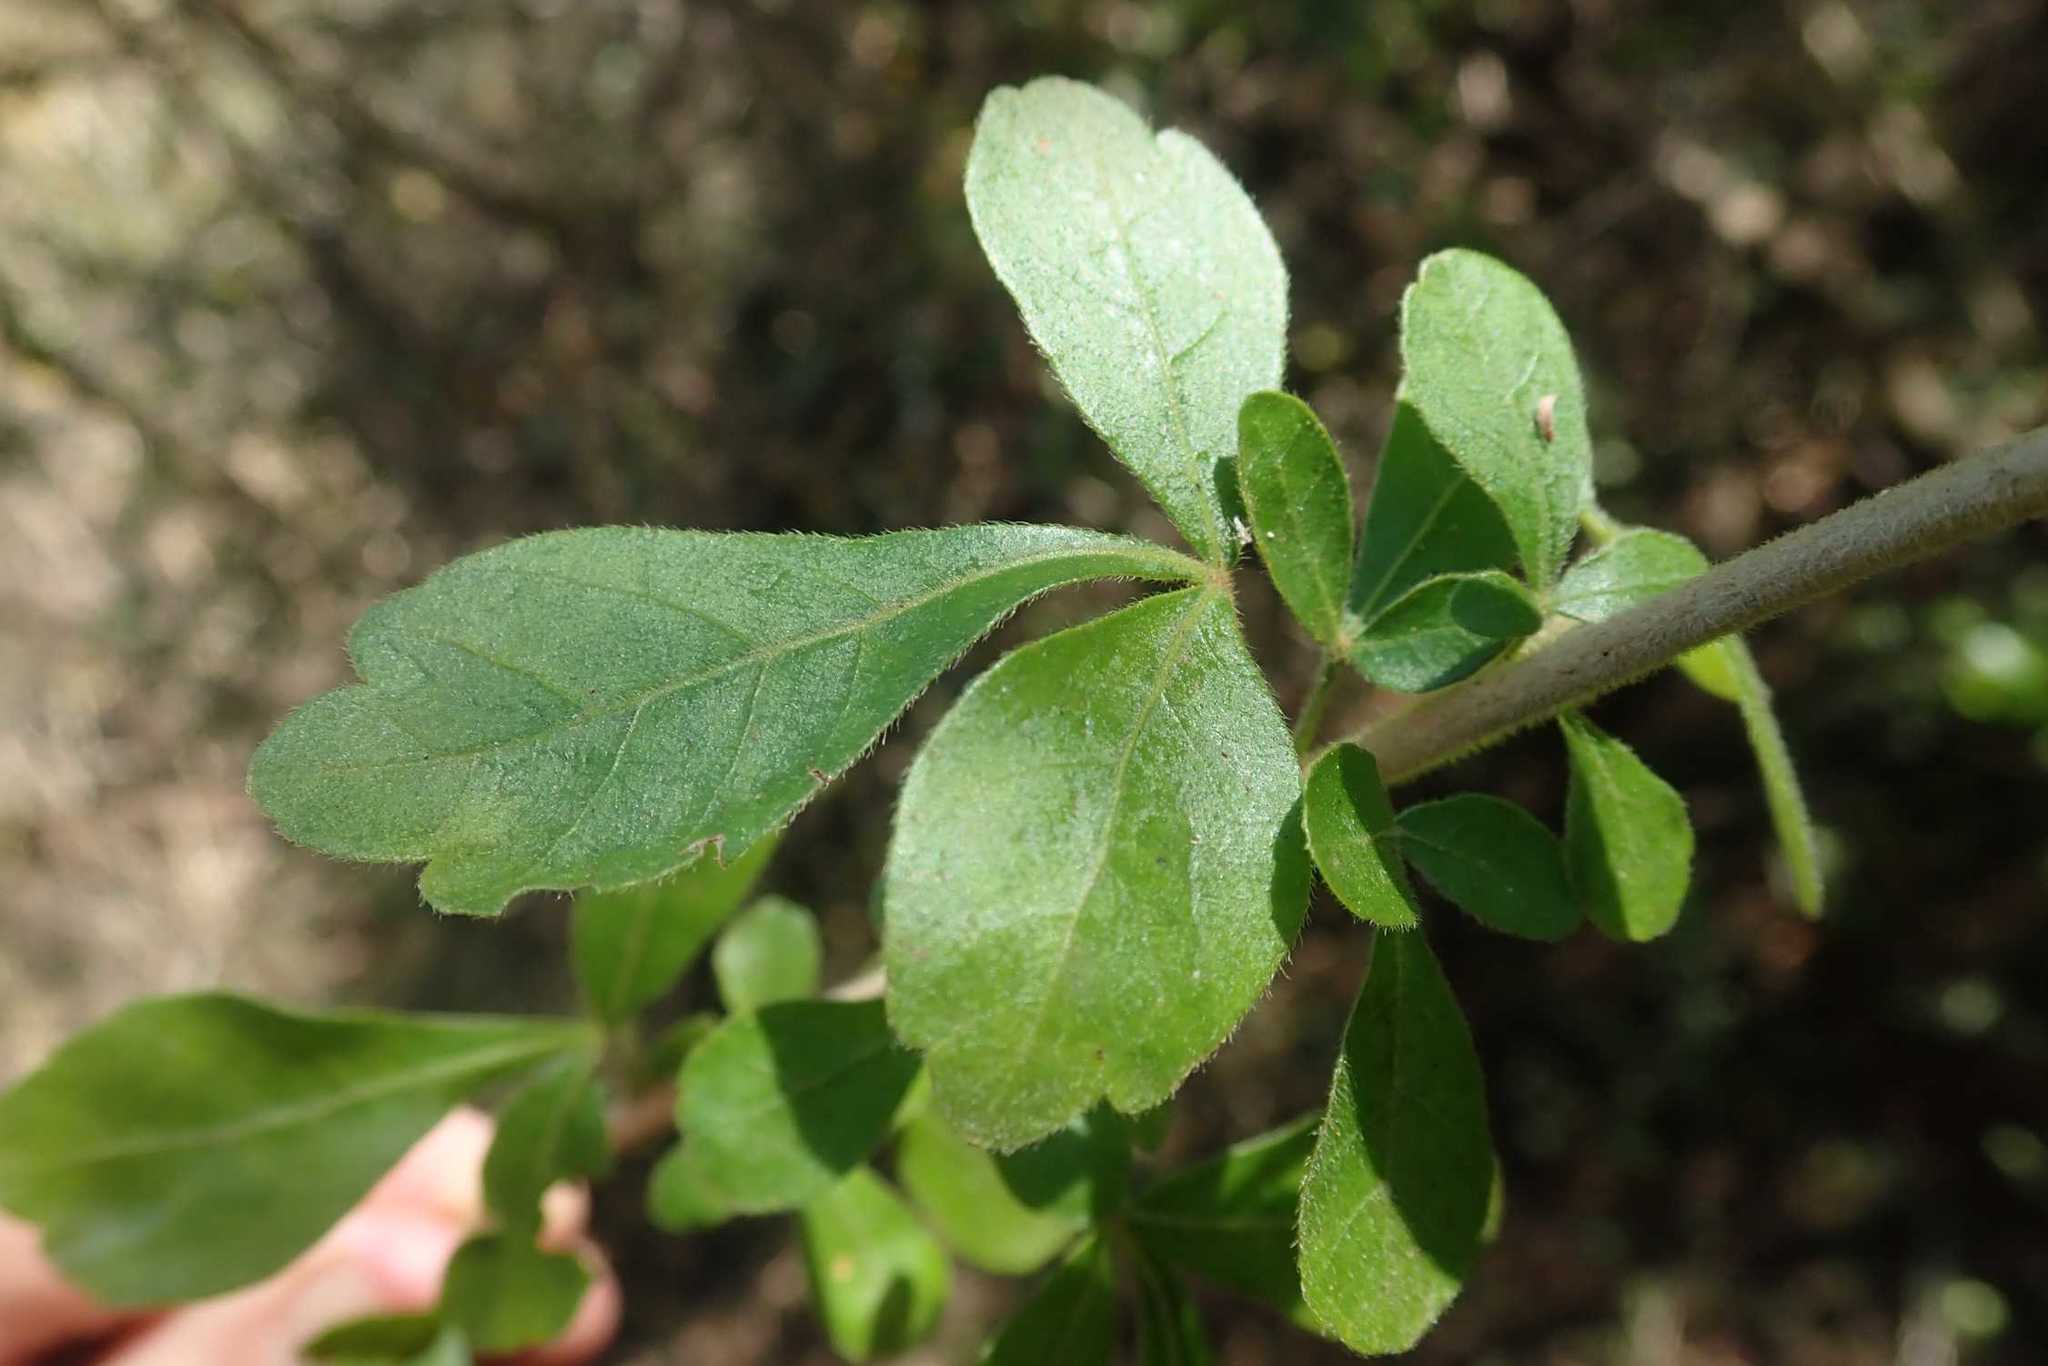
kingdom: Plantae
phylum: Tracheophyta
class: Magnoliopsida
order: Sapindales
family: Anacardiaceae
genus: Searsia
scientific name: Searsia pentheri
